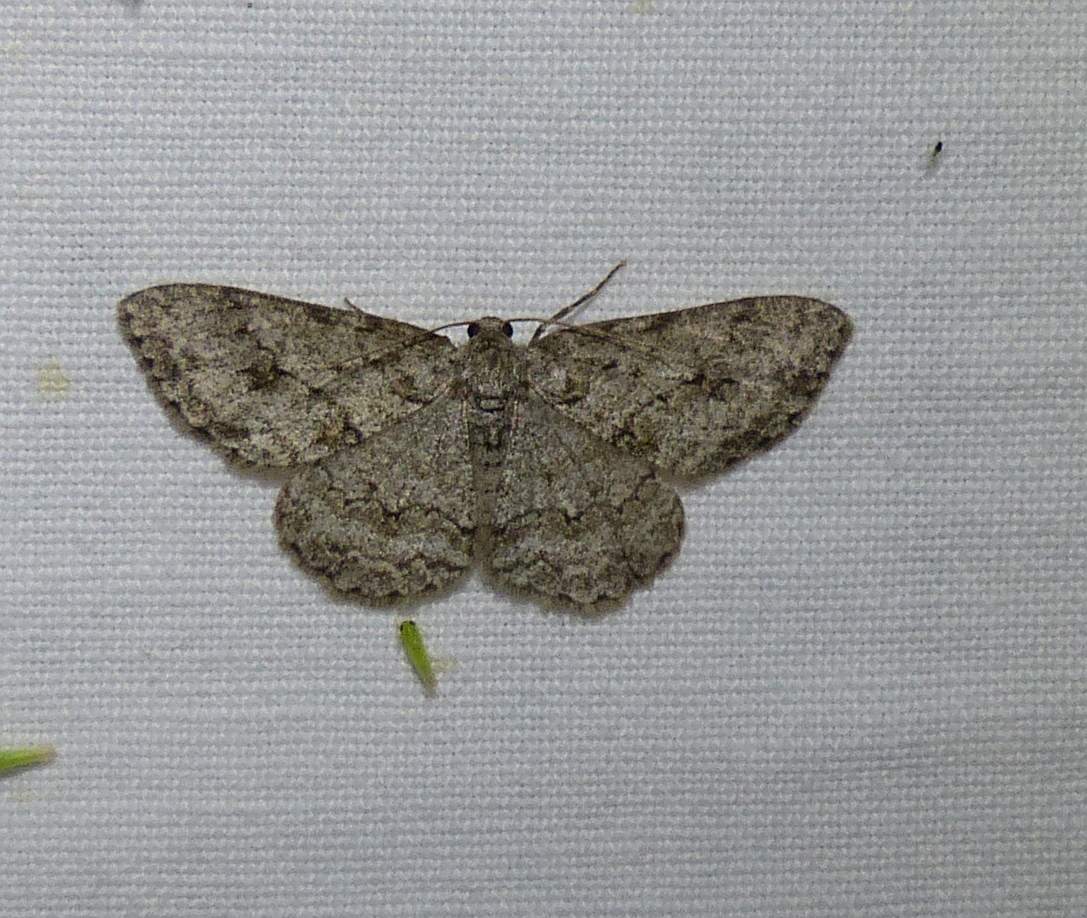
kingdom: Animalia
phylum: Arthropoda
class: Insecta
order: Lepidoptera
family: Geometridae
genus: Ectropis
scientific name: Ectropis crepuscularia
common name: Engrailed
